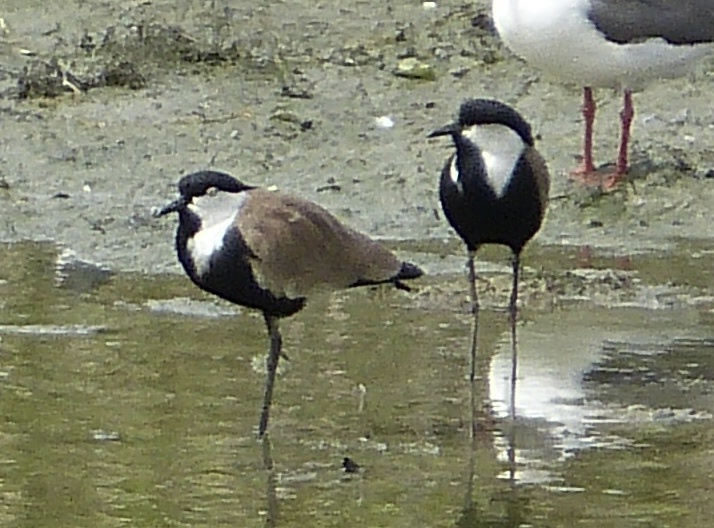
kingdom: Animalia
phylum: Chordata
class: Aves
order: Charadriiformes
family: Charadriidae
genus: Vanellus
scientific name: Vanellus spinosus
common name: Spur-winged lapwing
